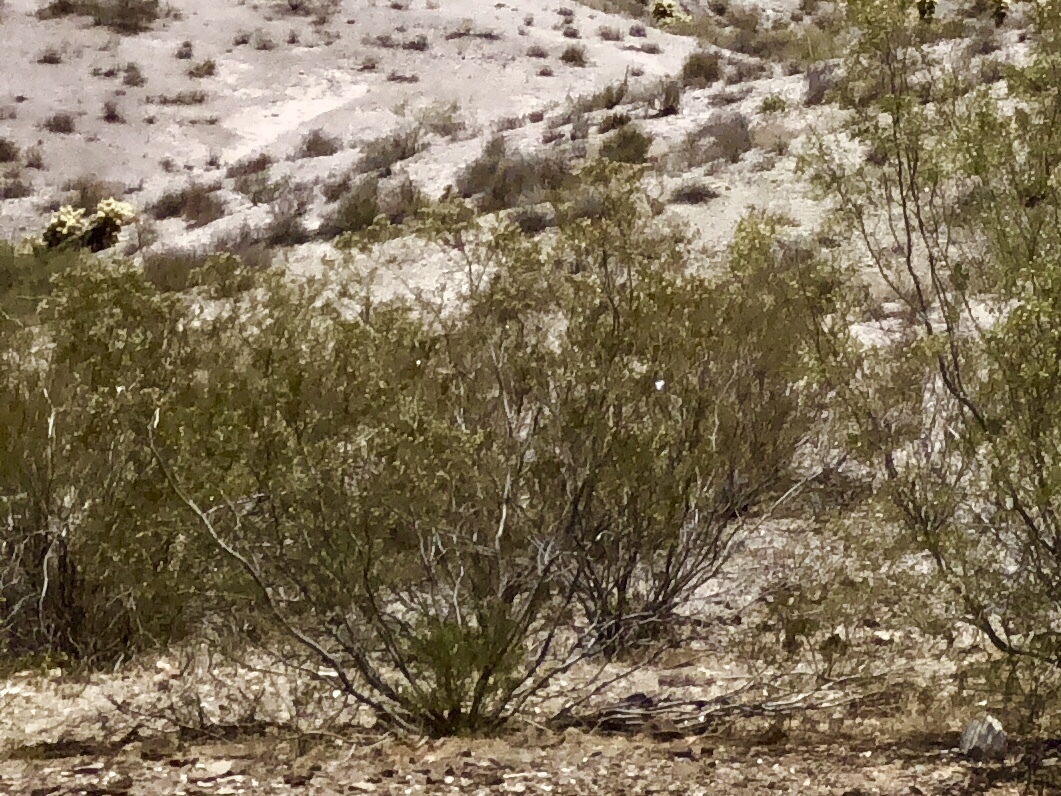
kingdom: Plantae
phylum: Tracheophyta
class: Magnoliopsida
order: Zygophyllales
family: Zygophyllaceae
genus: Larrea
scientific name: Larrea tridentata
